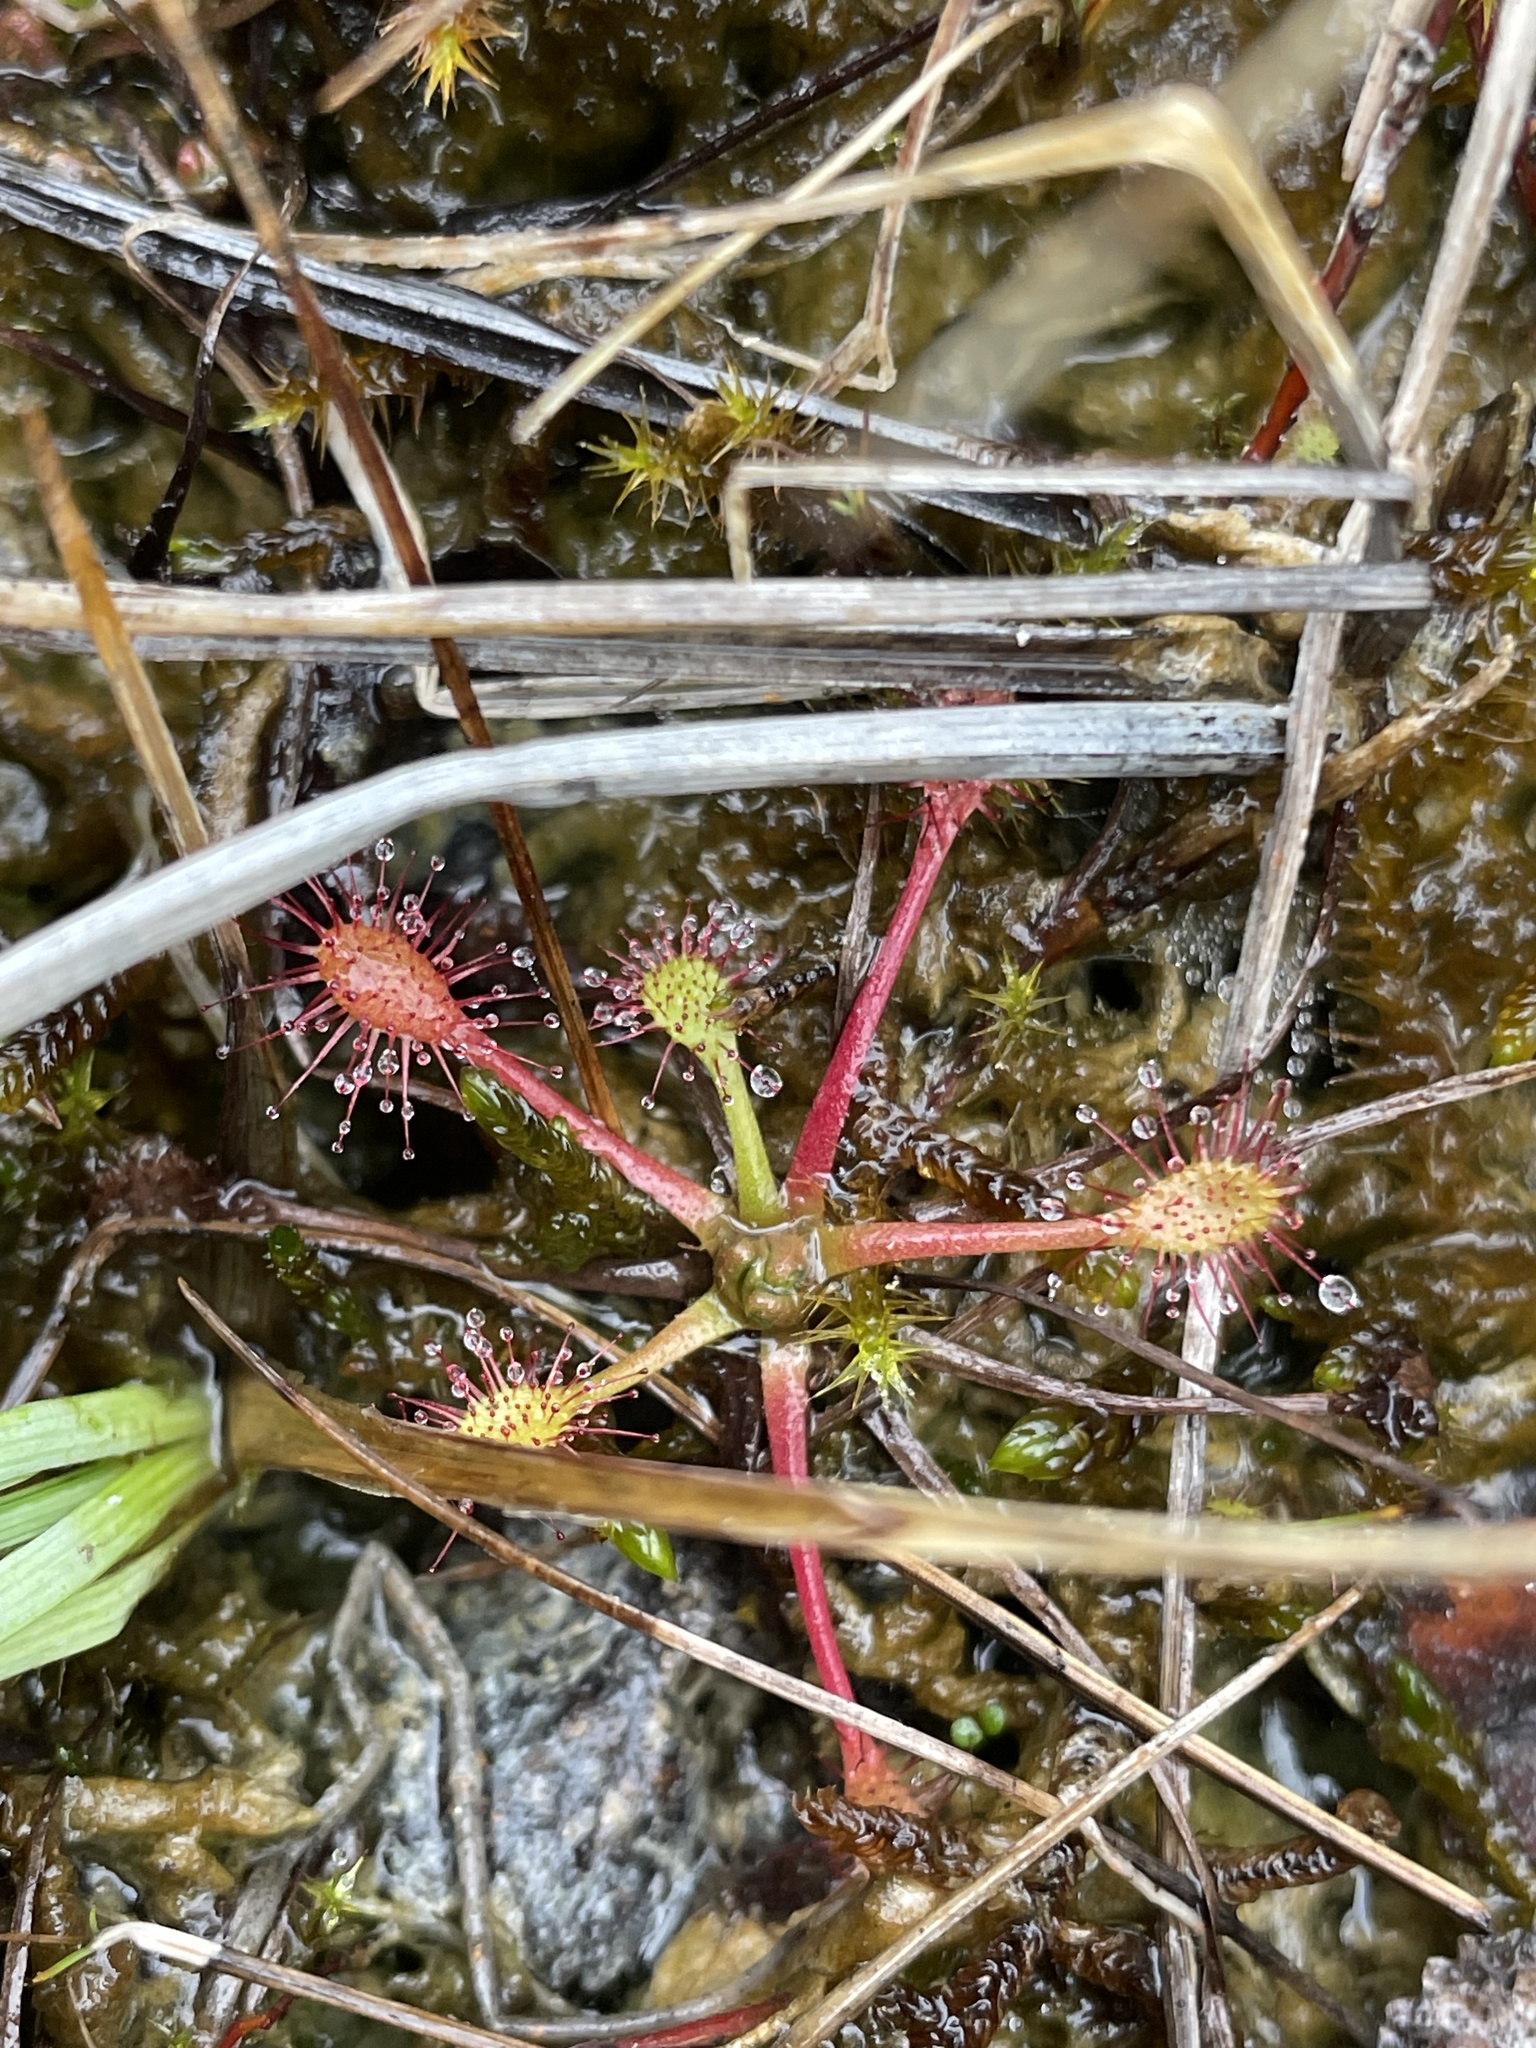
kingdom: Plantae
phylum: Tracheophyta
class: Magnoliopsida
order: Caryophyllales
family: Droseraceae
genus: Drosera
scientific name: Drosera anglica
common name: Great sundew
